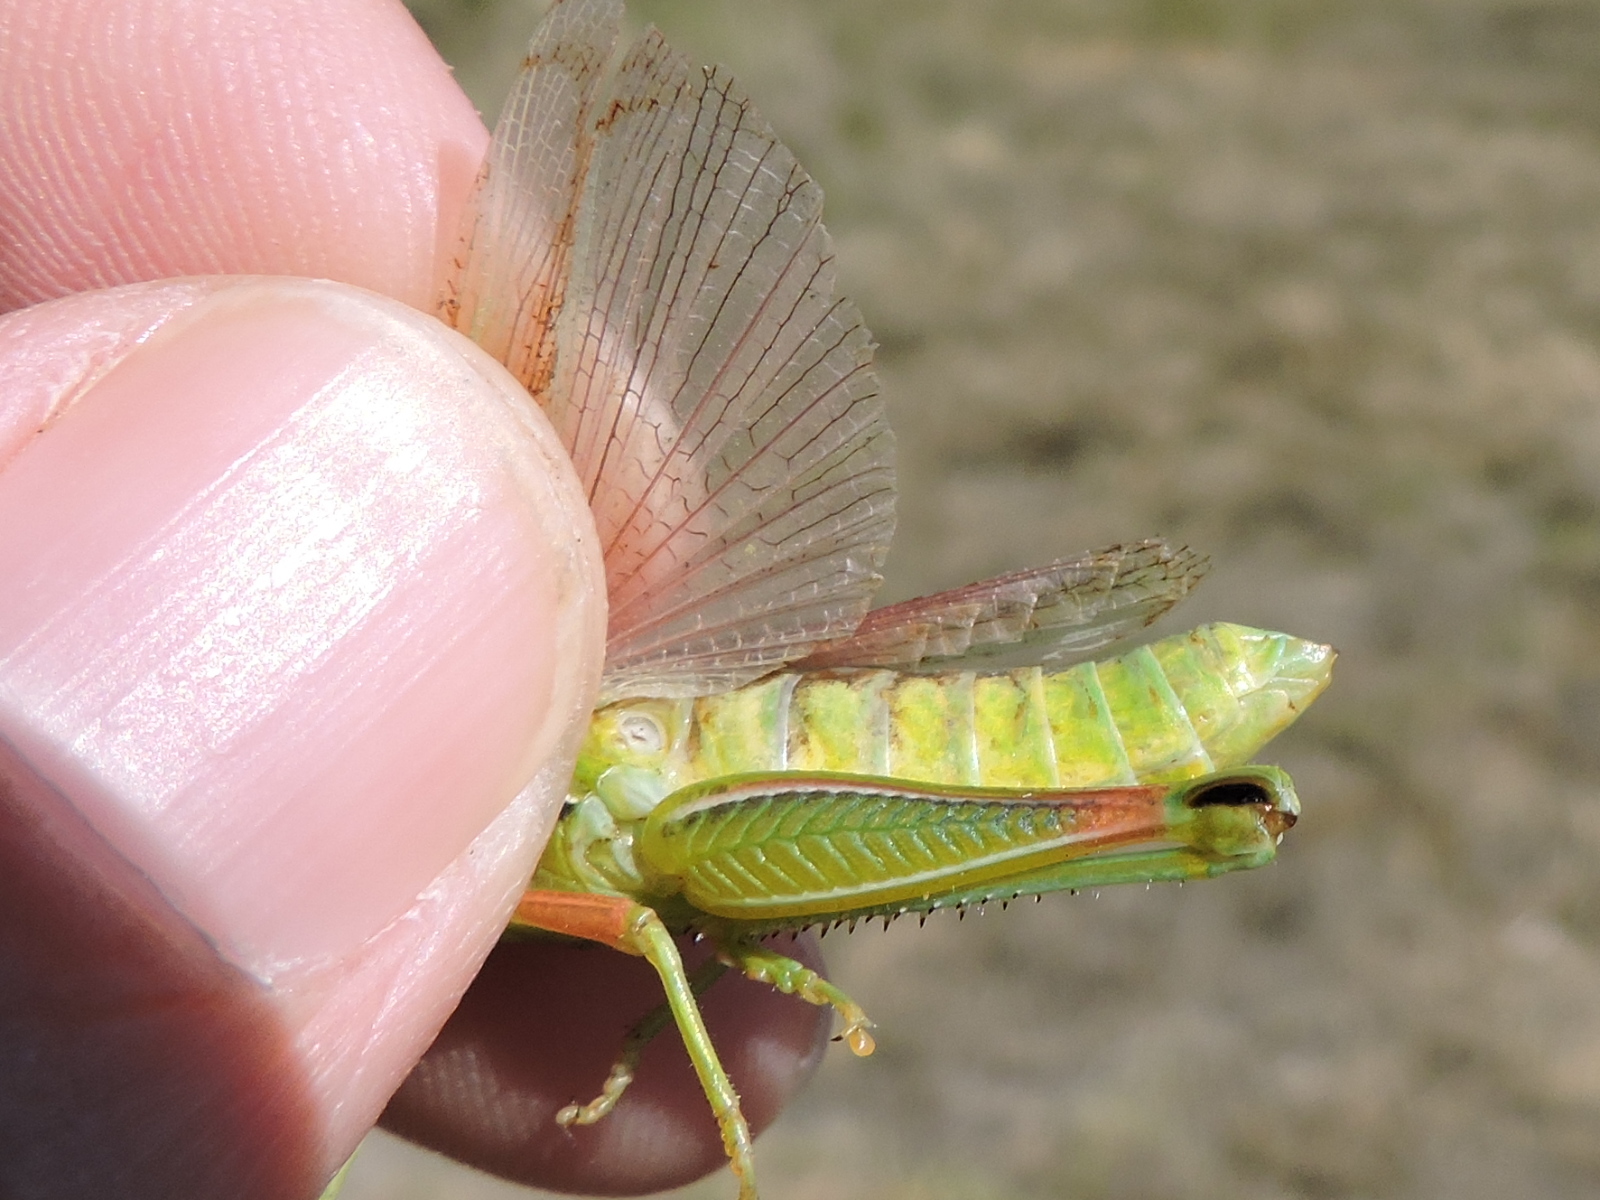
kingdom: Animalia
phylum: Arthropoda
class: Insecta
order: Orthoptera
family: Acrididae
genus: Hesperotettix
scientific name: Hesperotettix viridis
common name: Meadow purple-striped grasshopper
